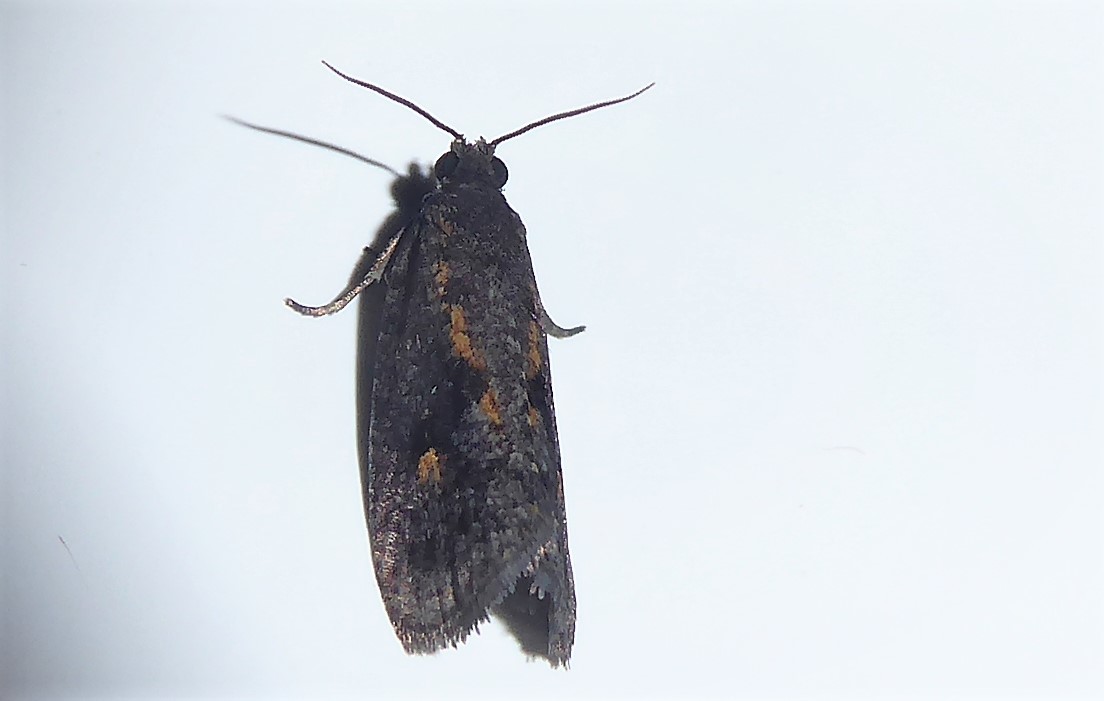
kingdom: Animalia
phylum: Arthropoda
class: Insecta
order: Lepidoptera
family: Tortricidae
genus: Cryptaspasma
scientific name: Cryptaspasma querula
